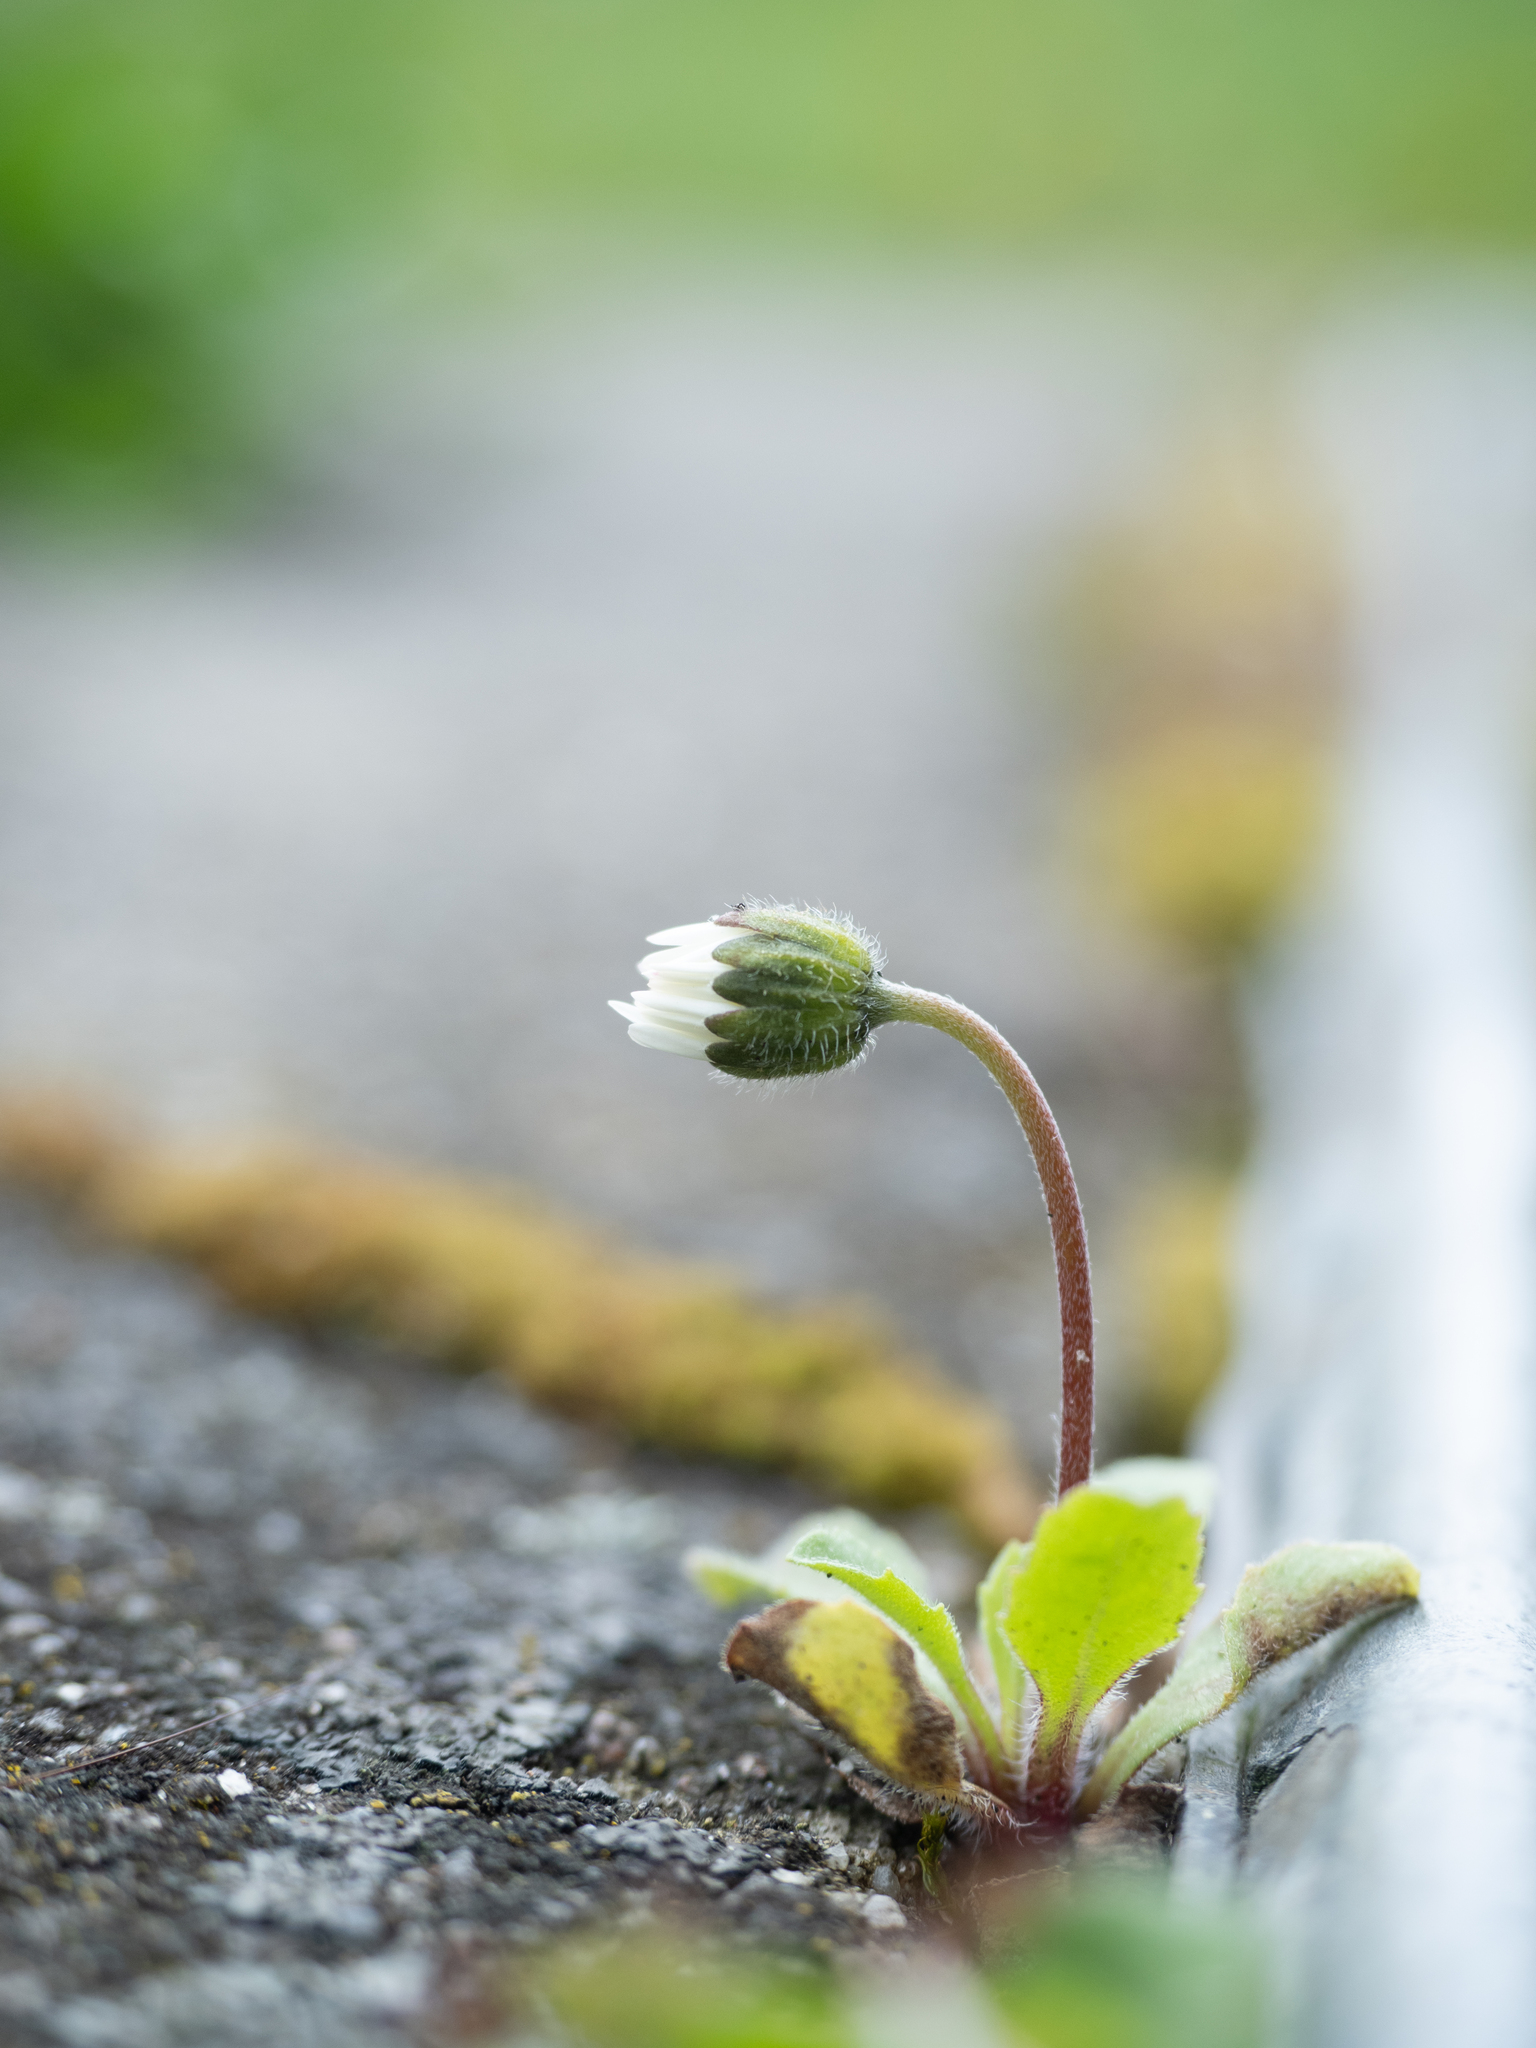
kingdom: Plantae
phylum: Tracheophyta
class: Magnoliopsida
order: Asterales
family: Asteraceae
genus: Bellis
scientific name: Bellis perennis
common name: Lawndaisy
